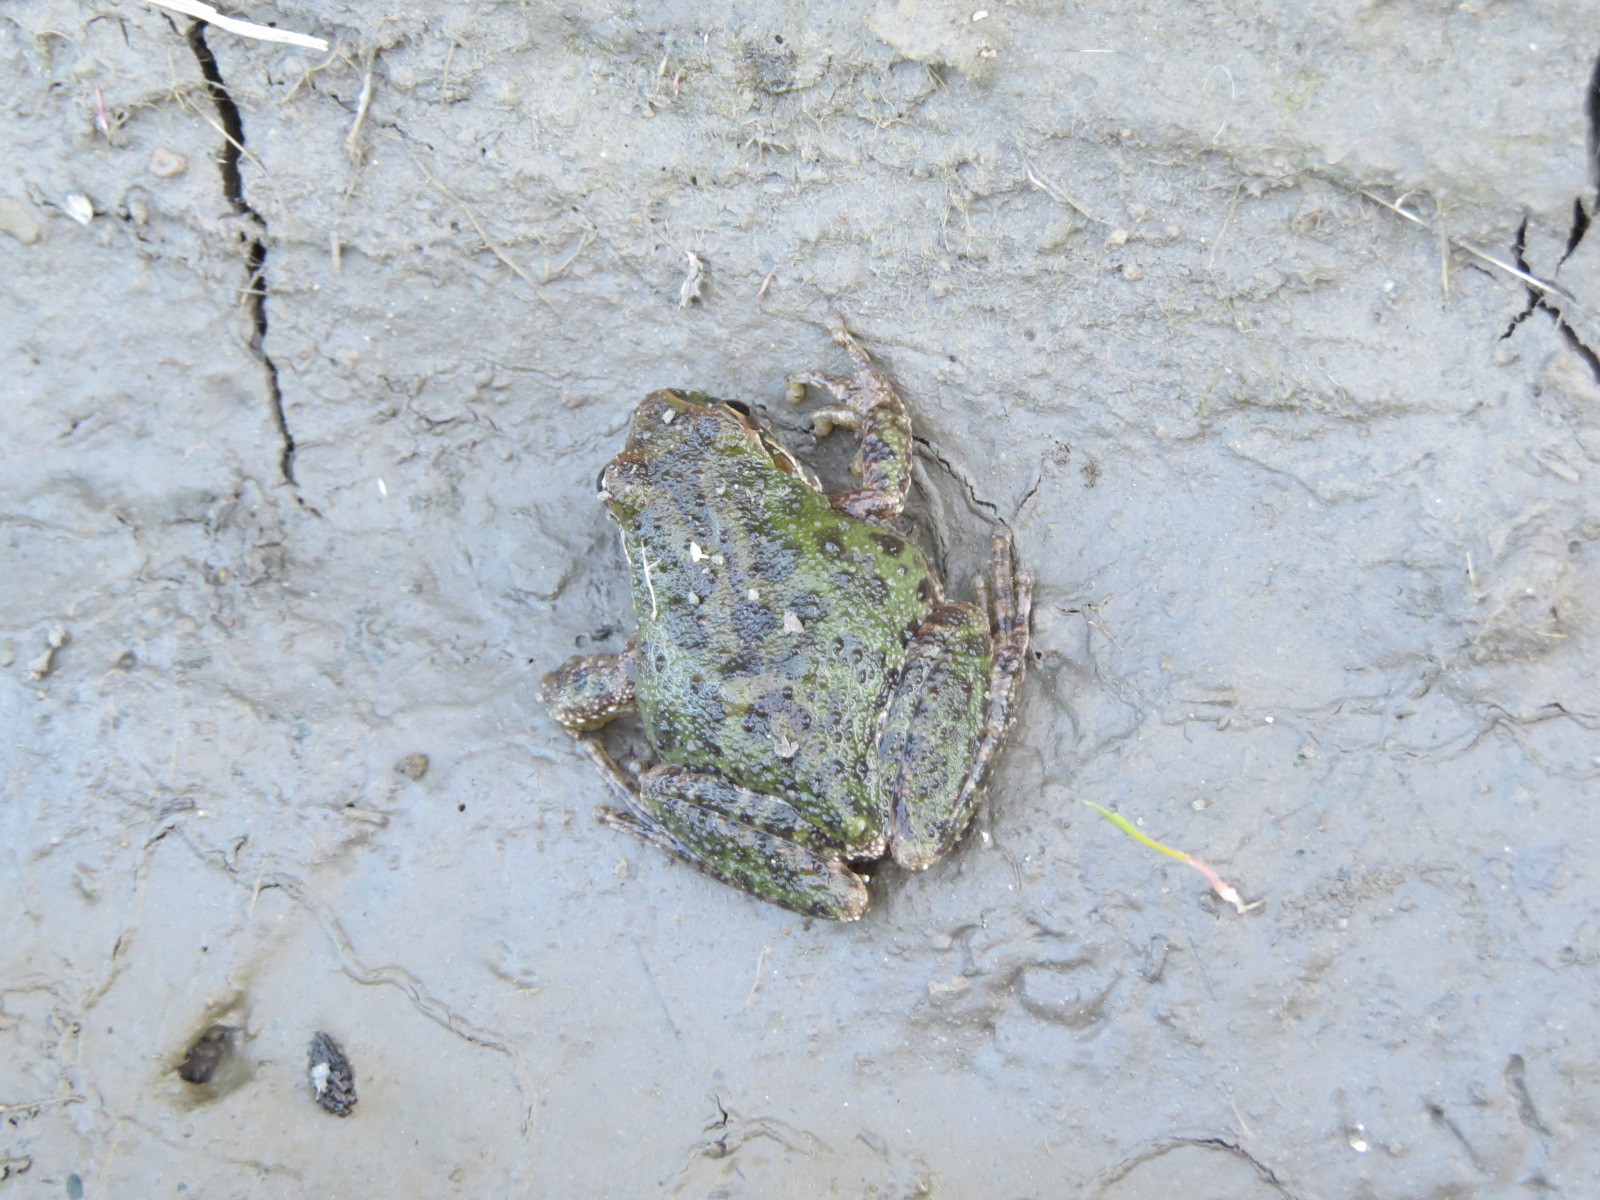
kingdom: Animalia
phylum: Chordata
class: Amphibia
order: Anura
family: Hylidae
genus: Pseudacris
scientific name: Pseudacris regilla
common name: Pacific chorus frog
